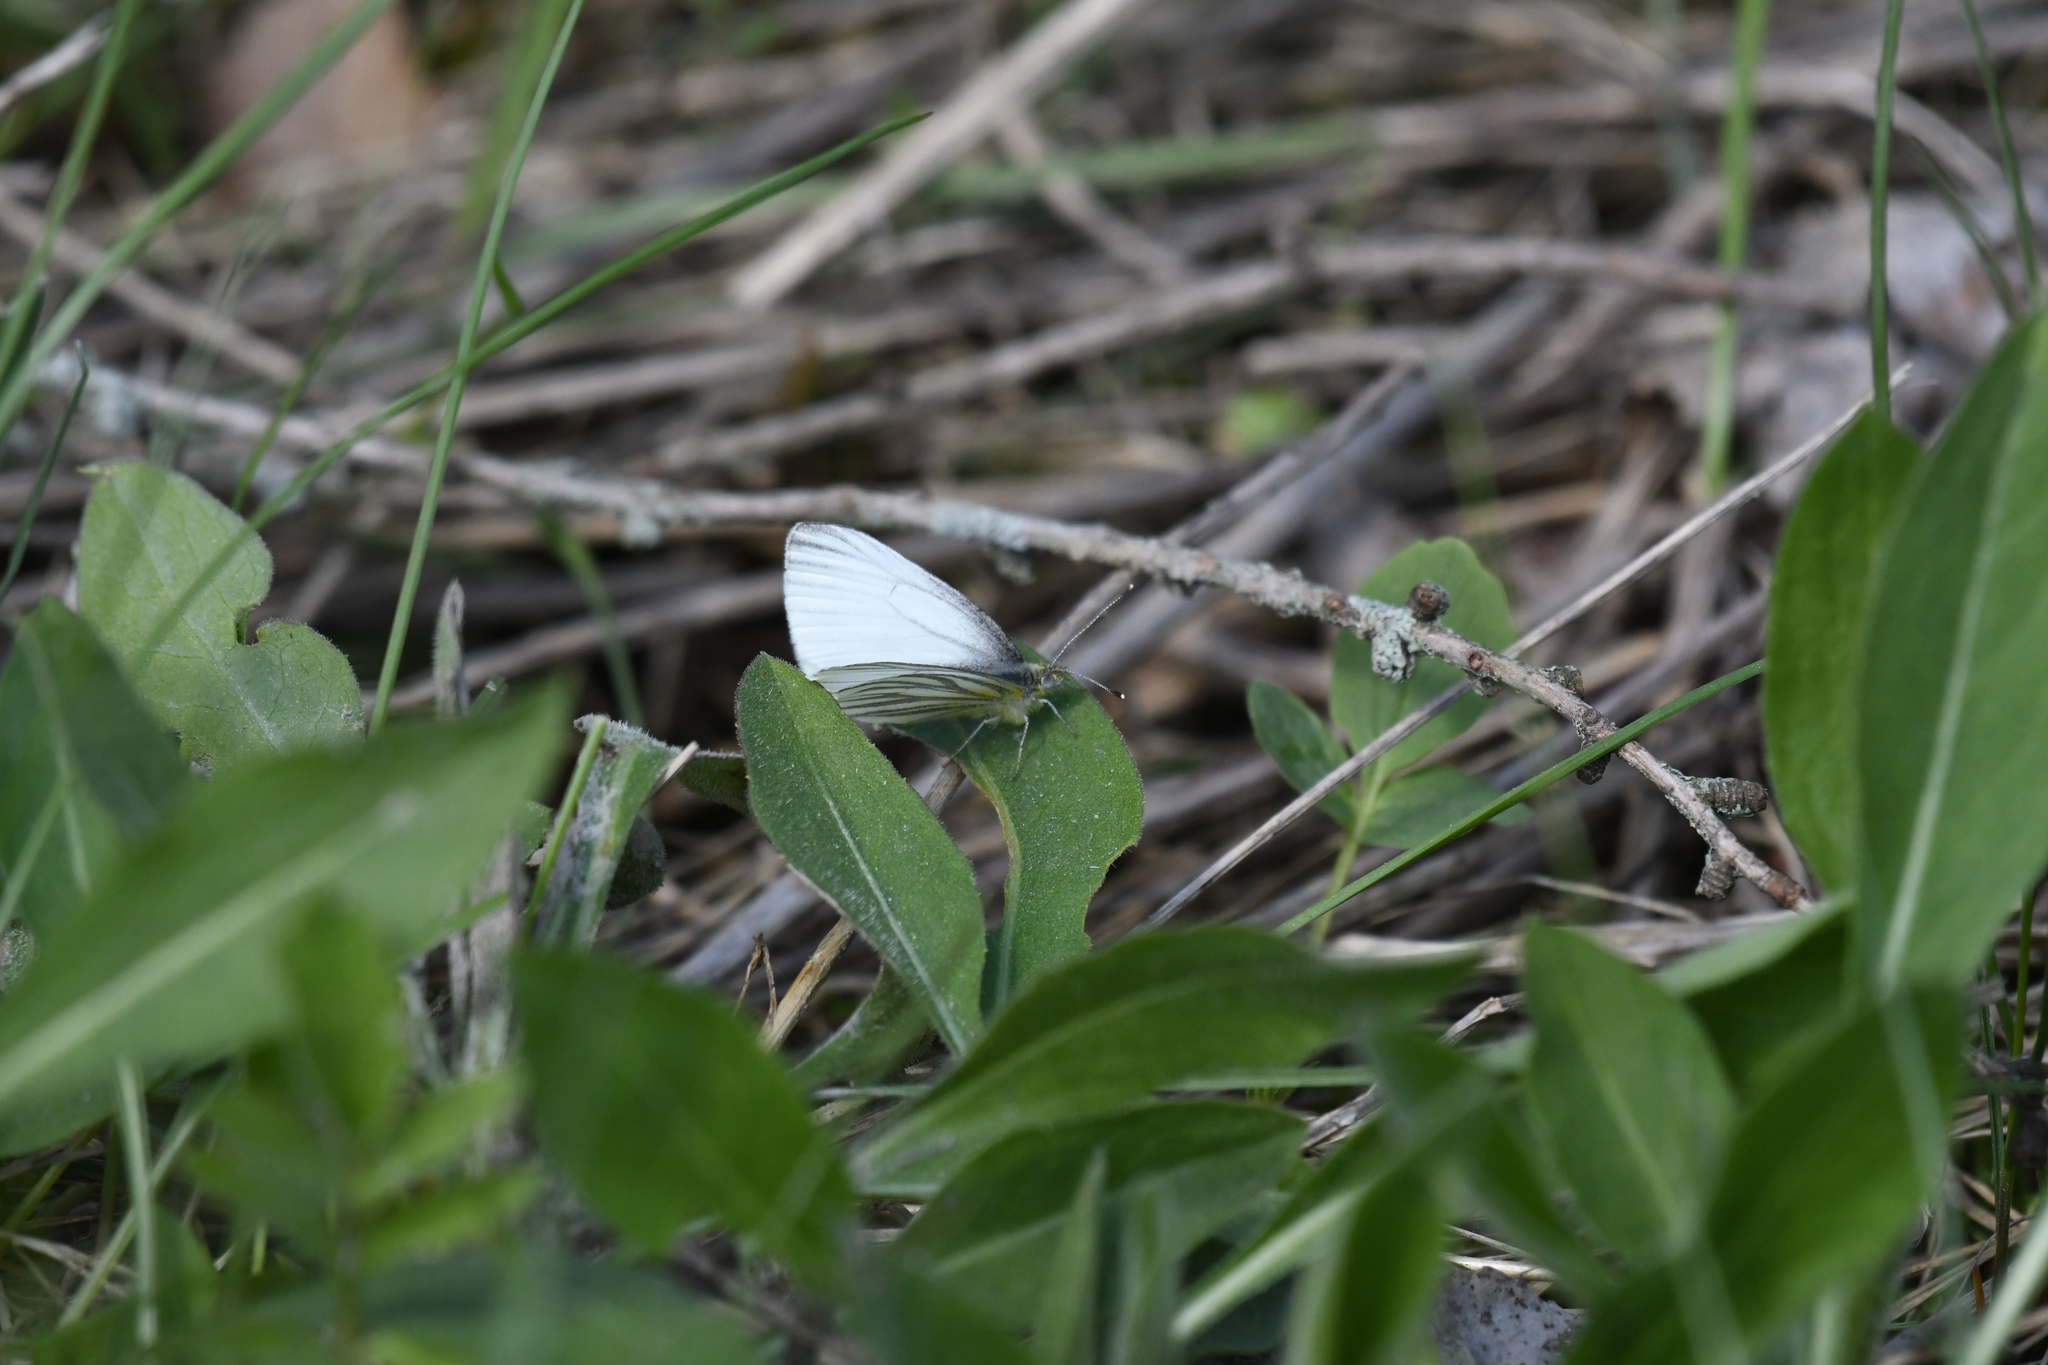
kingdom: Animalia
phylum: Arthropoda
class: Insecta
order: Lepidoptera
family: Pieridae
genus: Pieris
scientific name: Pieris oleracea
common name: Mustard white
